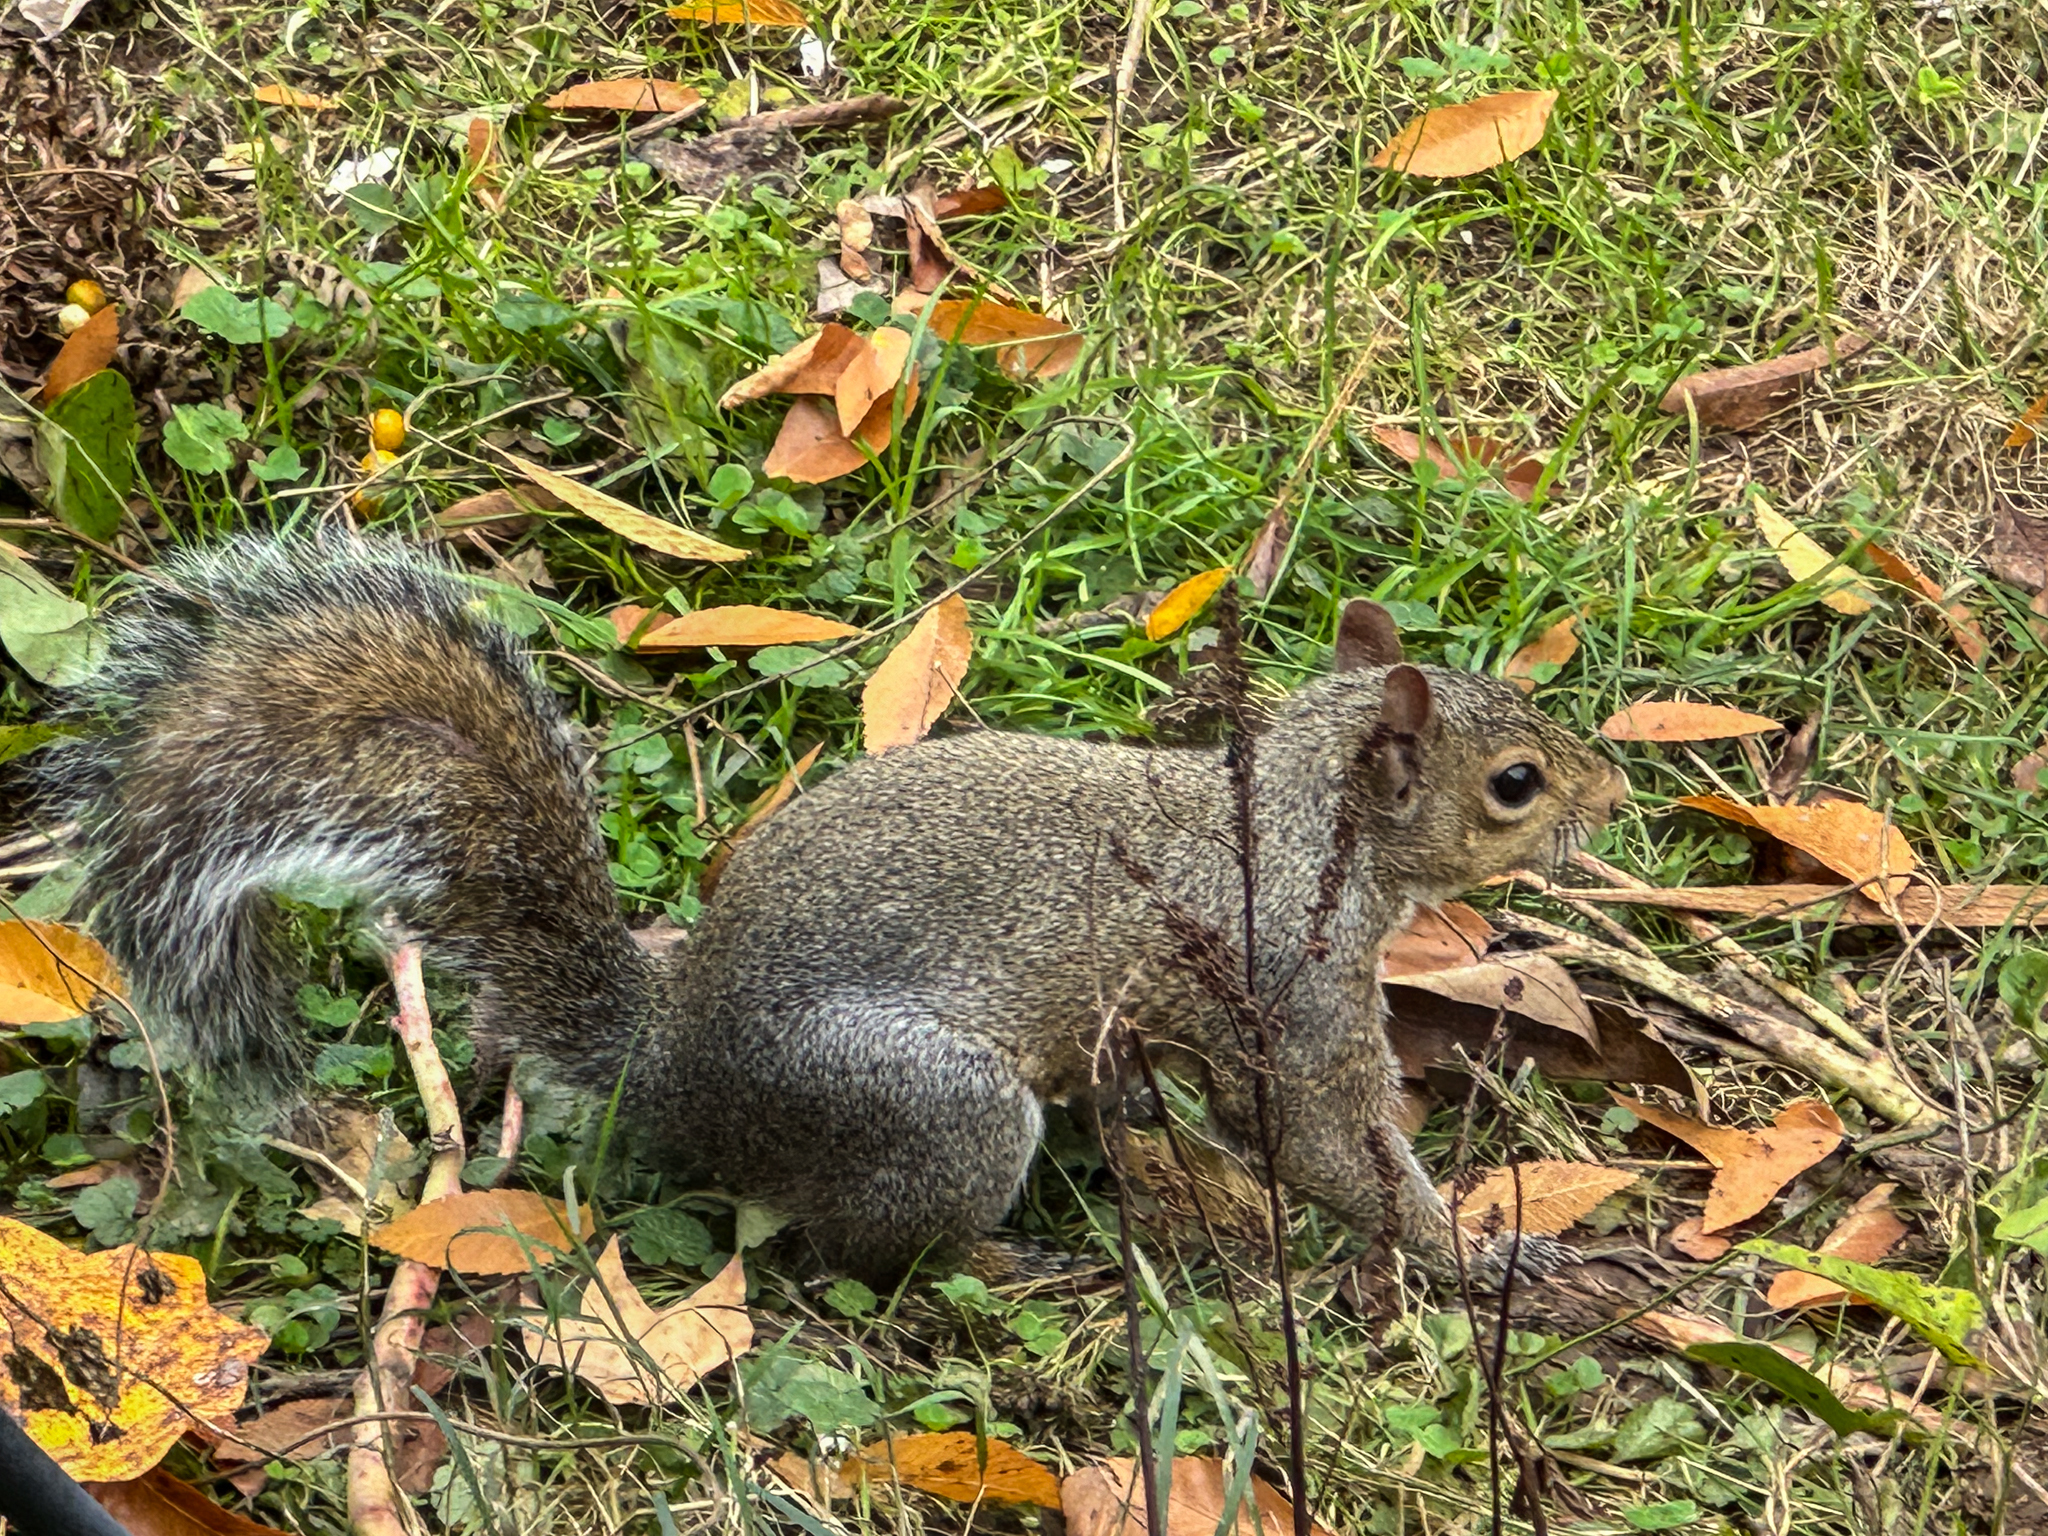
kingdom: Animalia
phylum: Chordata
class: Mammalia
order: Rodentia
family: Sciuridae
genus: Sciurus
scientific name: Sciurus carolinensis
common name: Eastern gray squirrel
